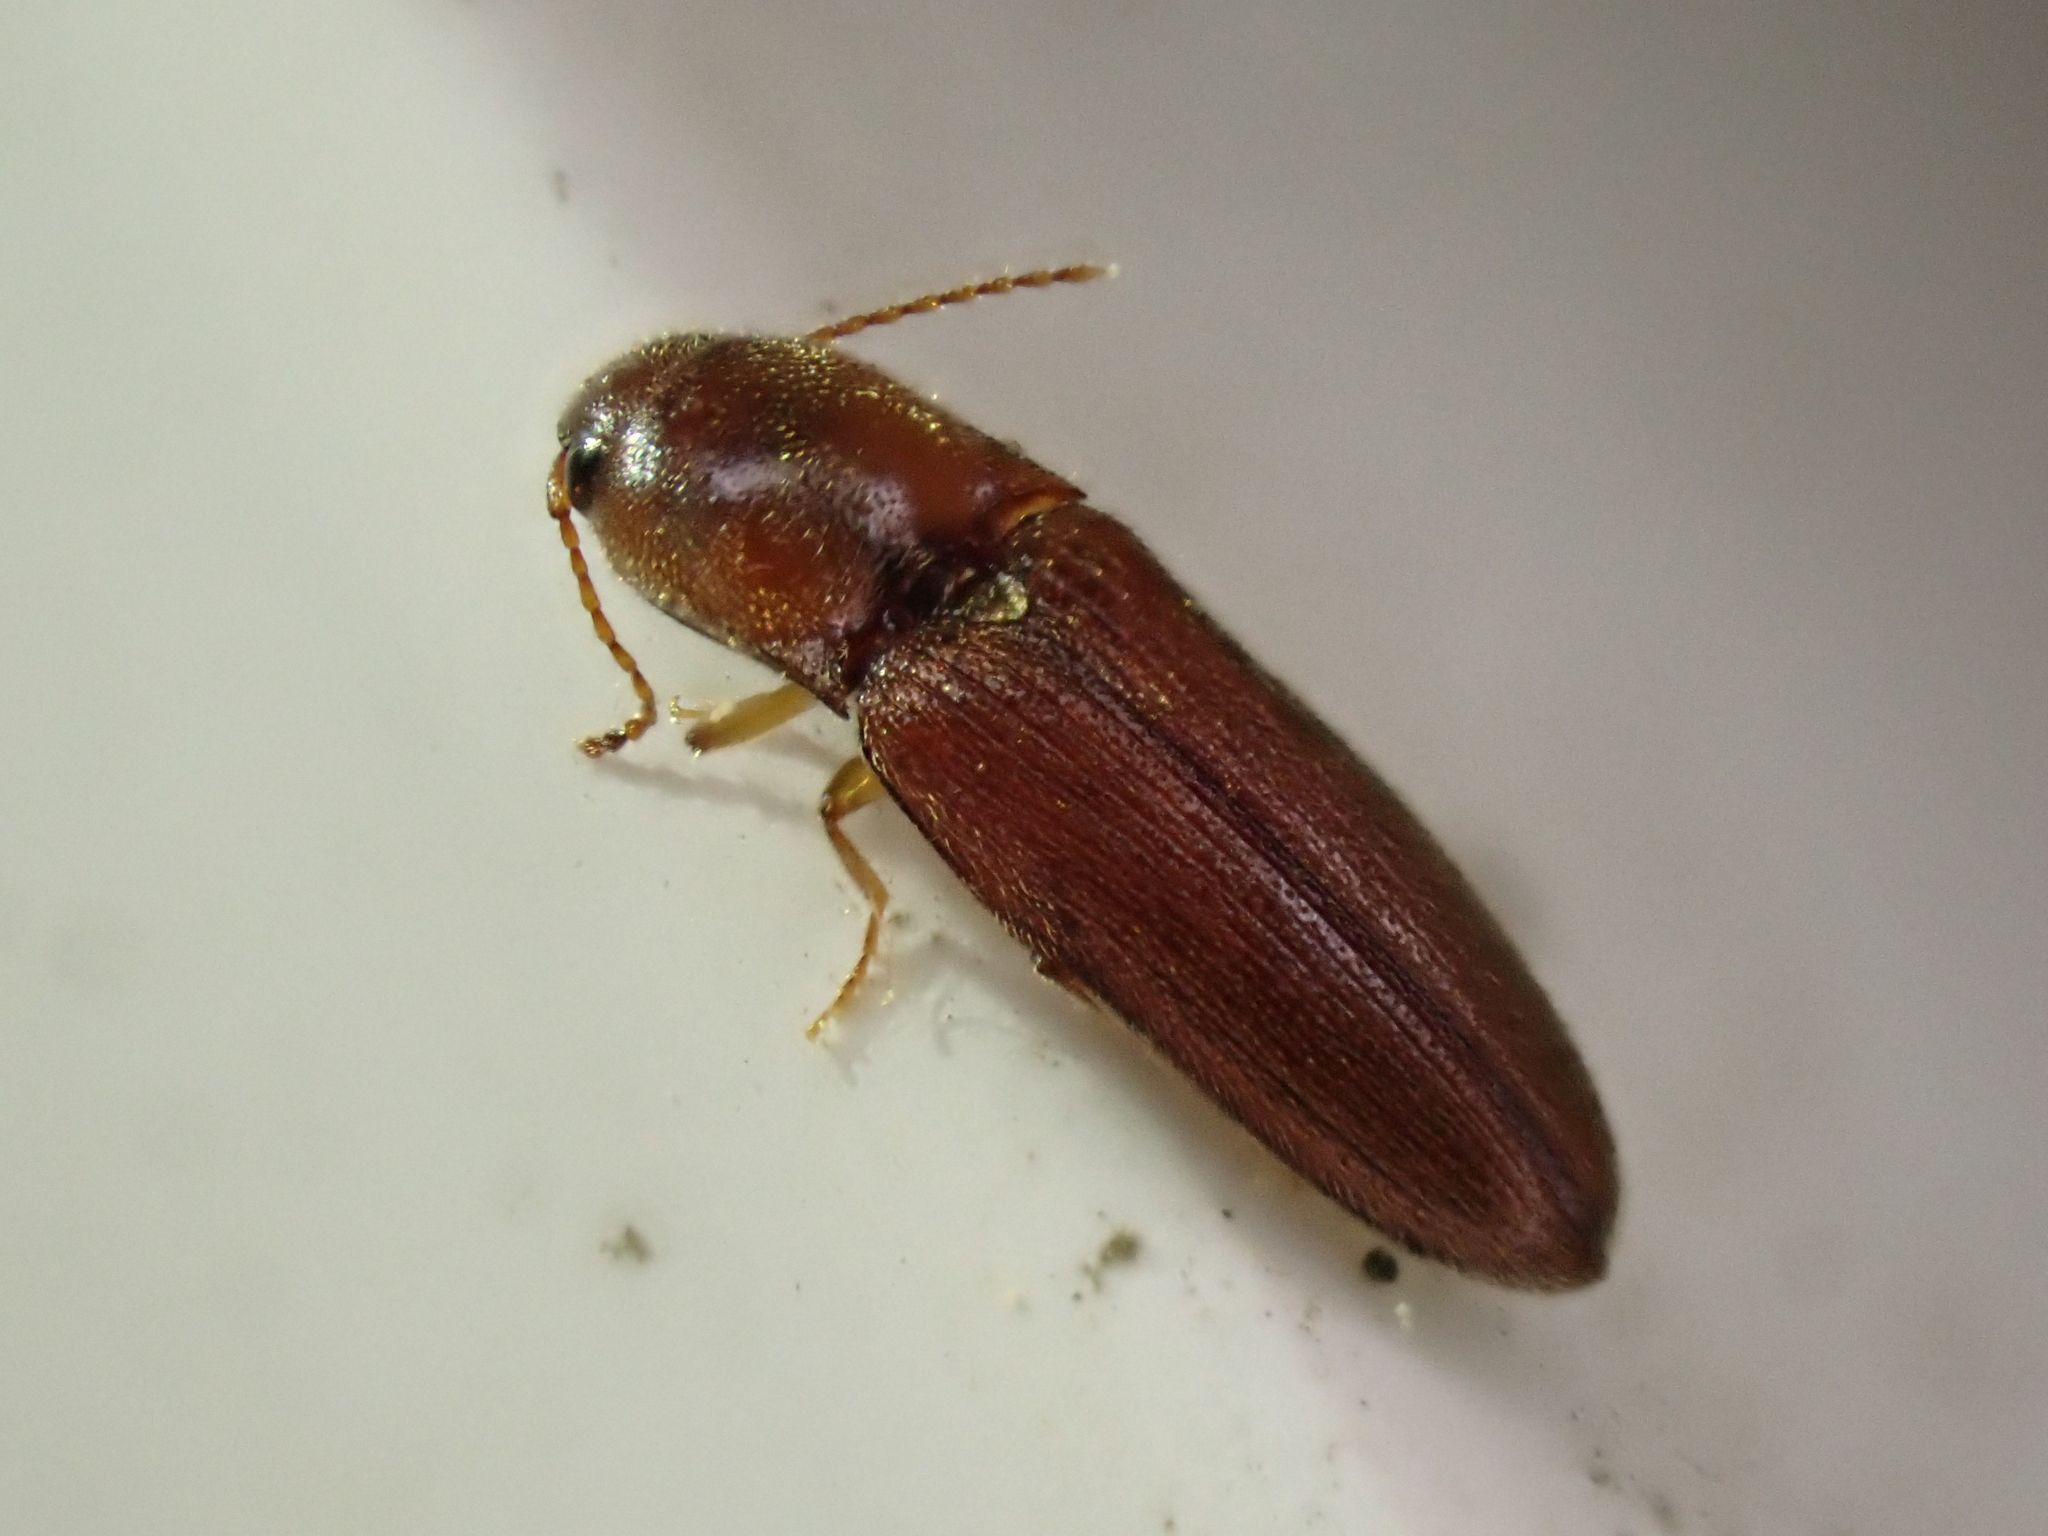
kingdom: Animalia
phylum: Arthropoda
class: Insecta
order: Coleoptera
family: Elateridae
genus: Glyphonyx
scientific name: Glyphonyx
